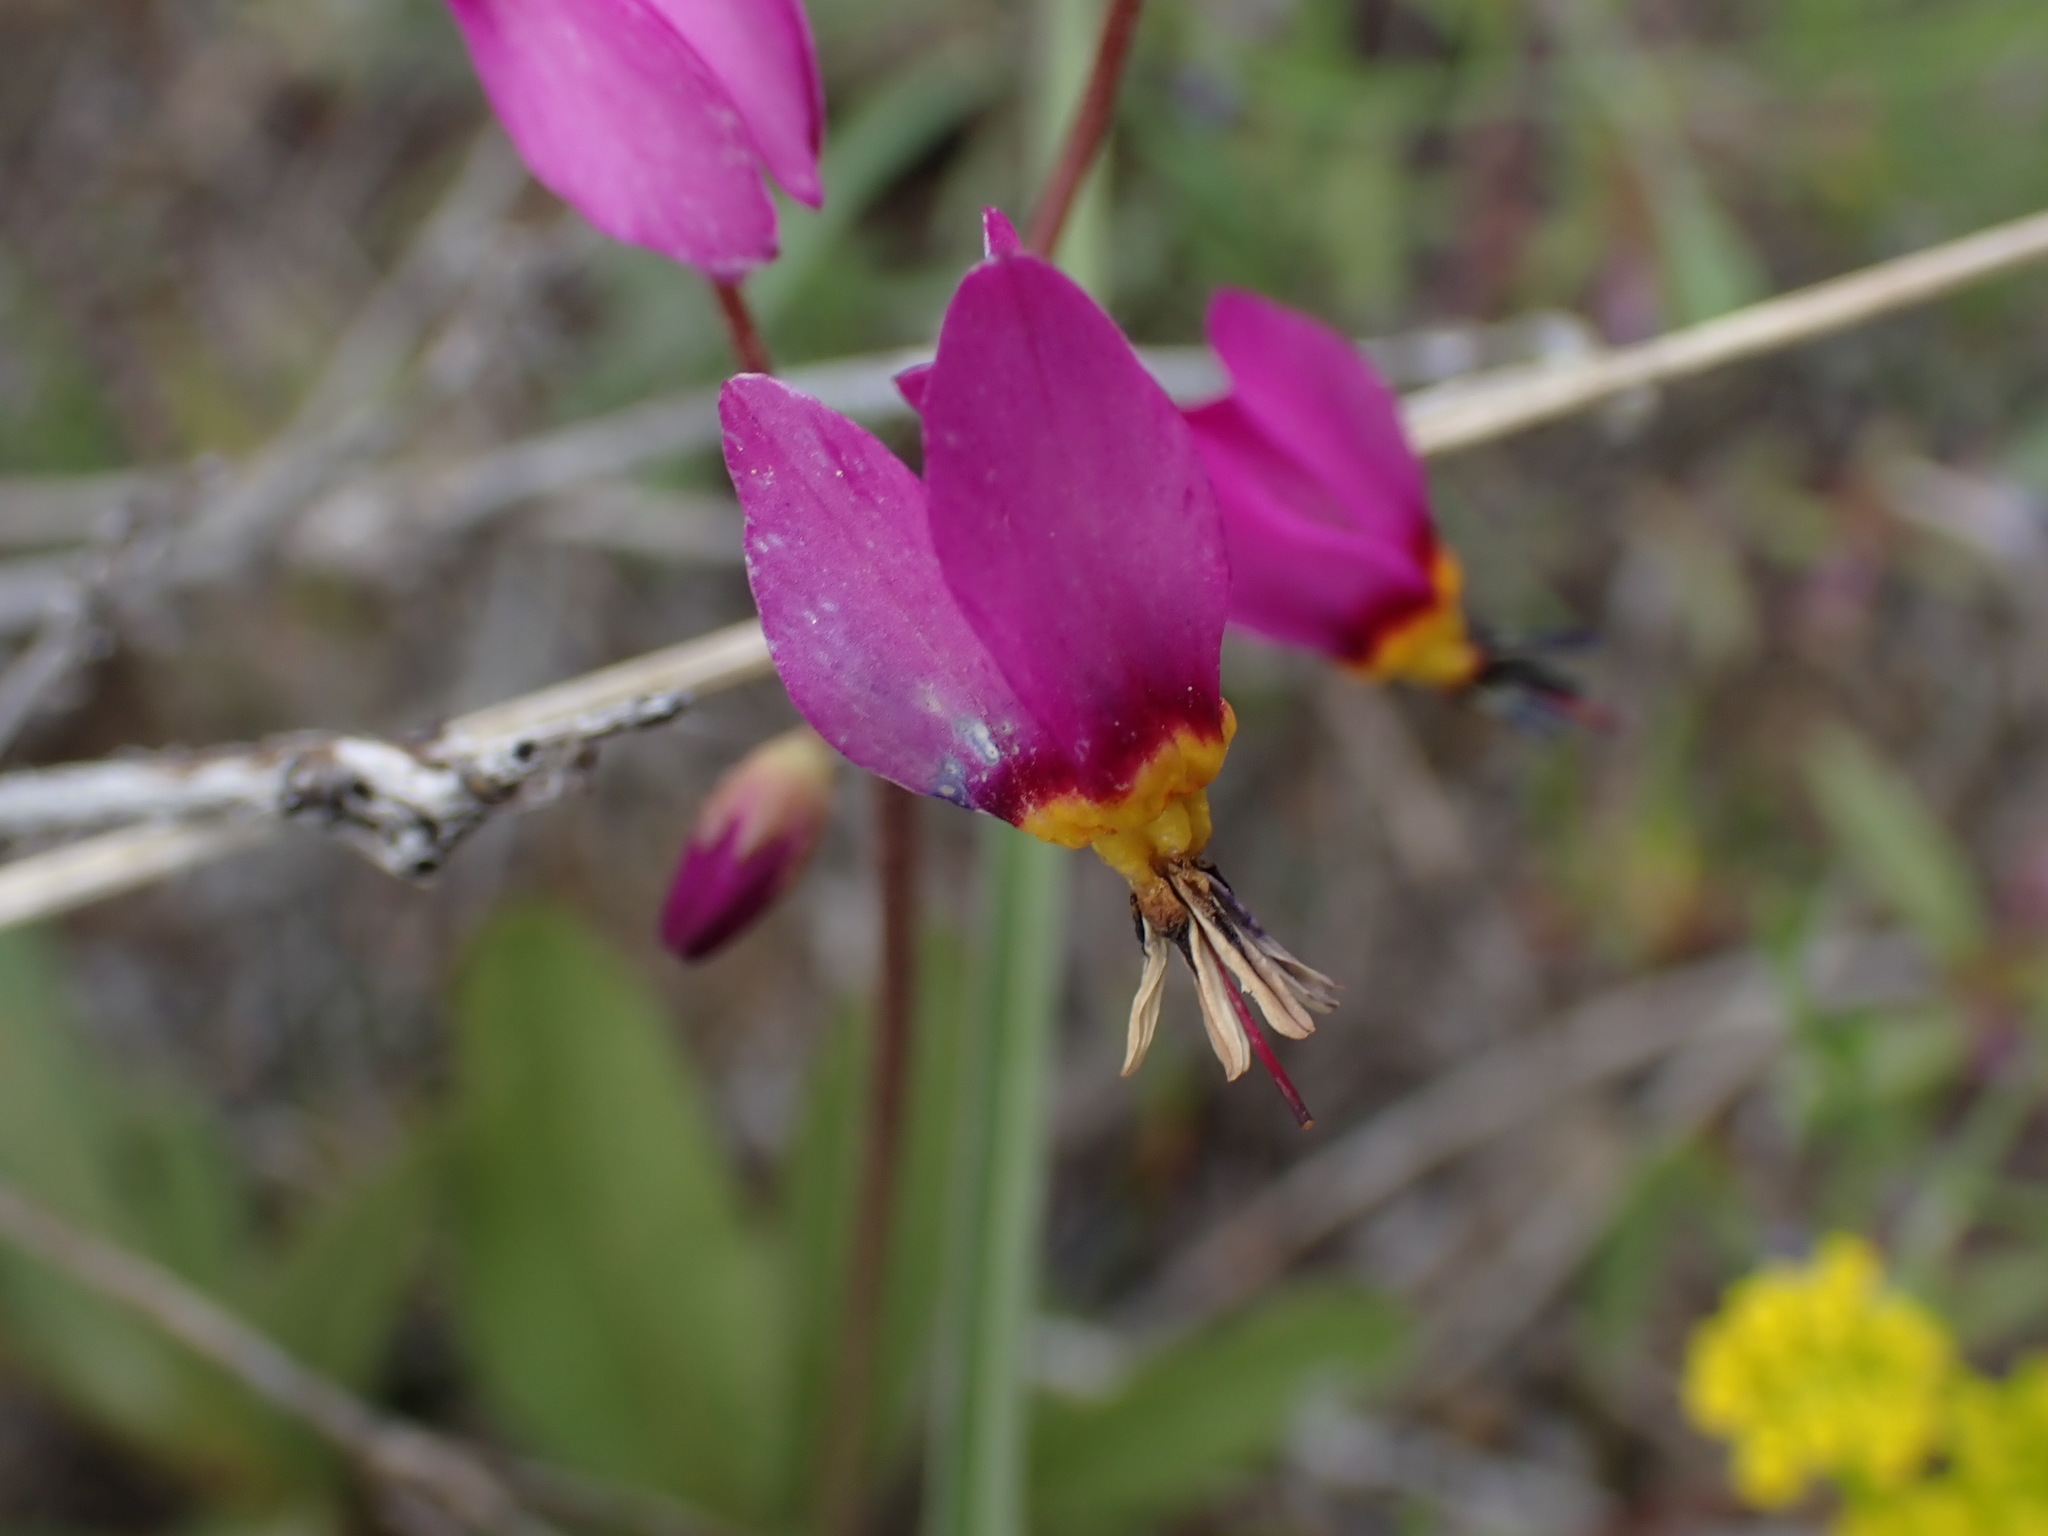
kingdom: Plantae
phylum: Tracheophyta
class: Magnoliopsida
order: Ericales
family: Primulaceae
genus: Dodecatheon
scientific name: Dodecatheon pulchellum
